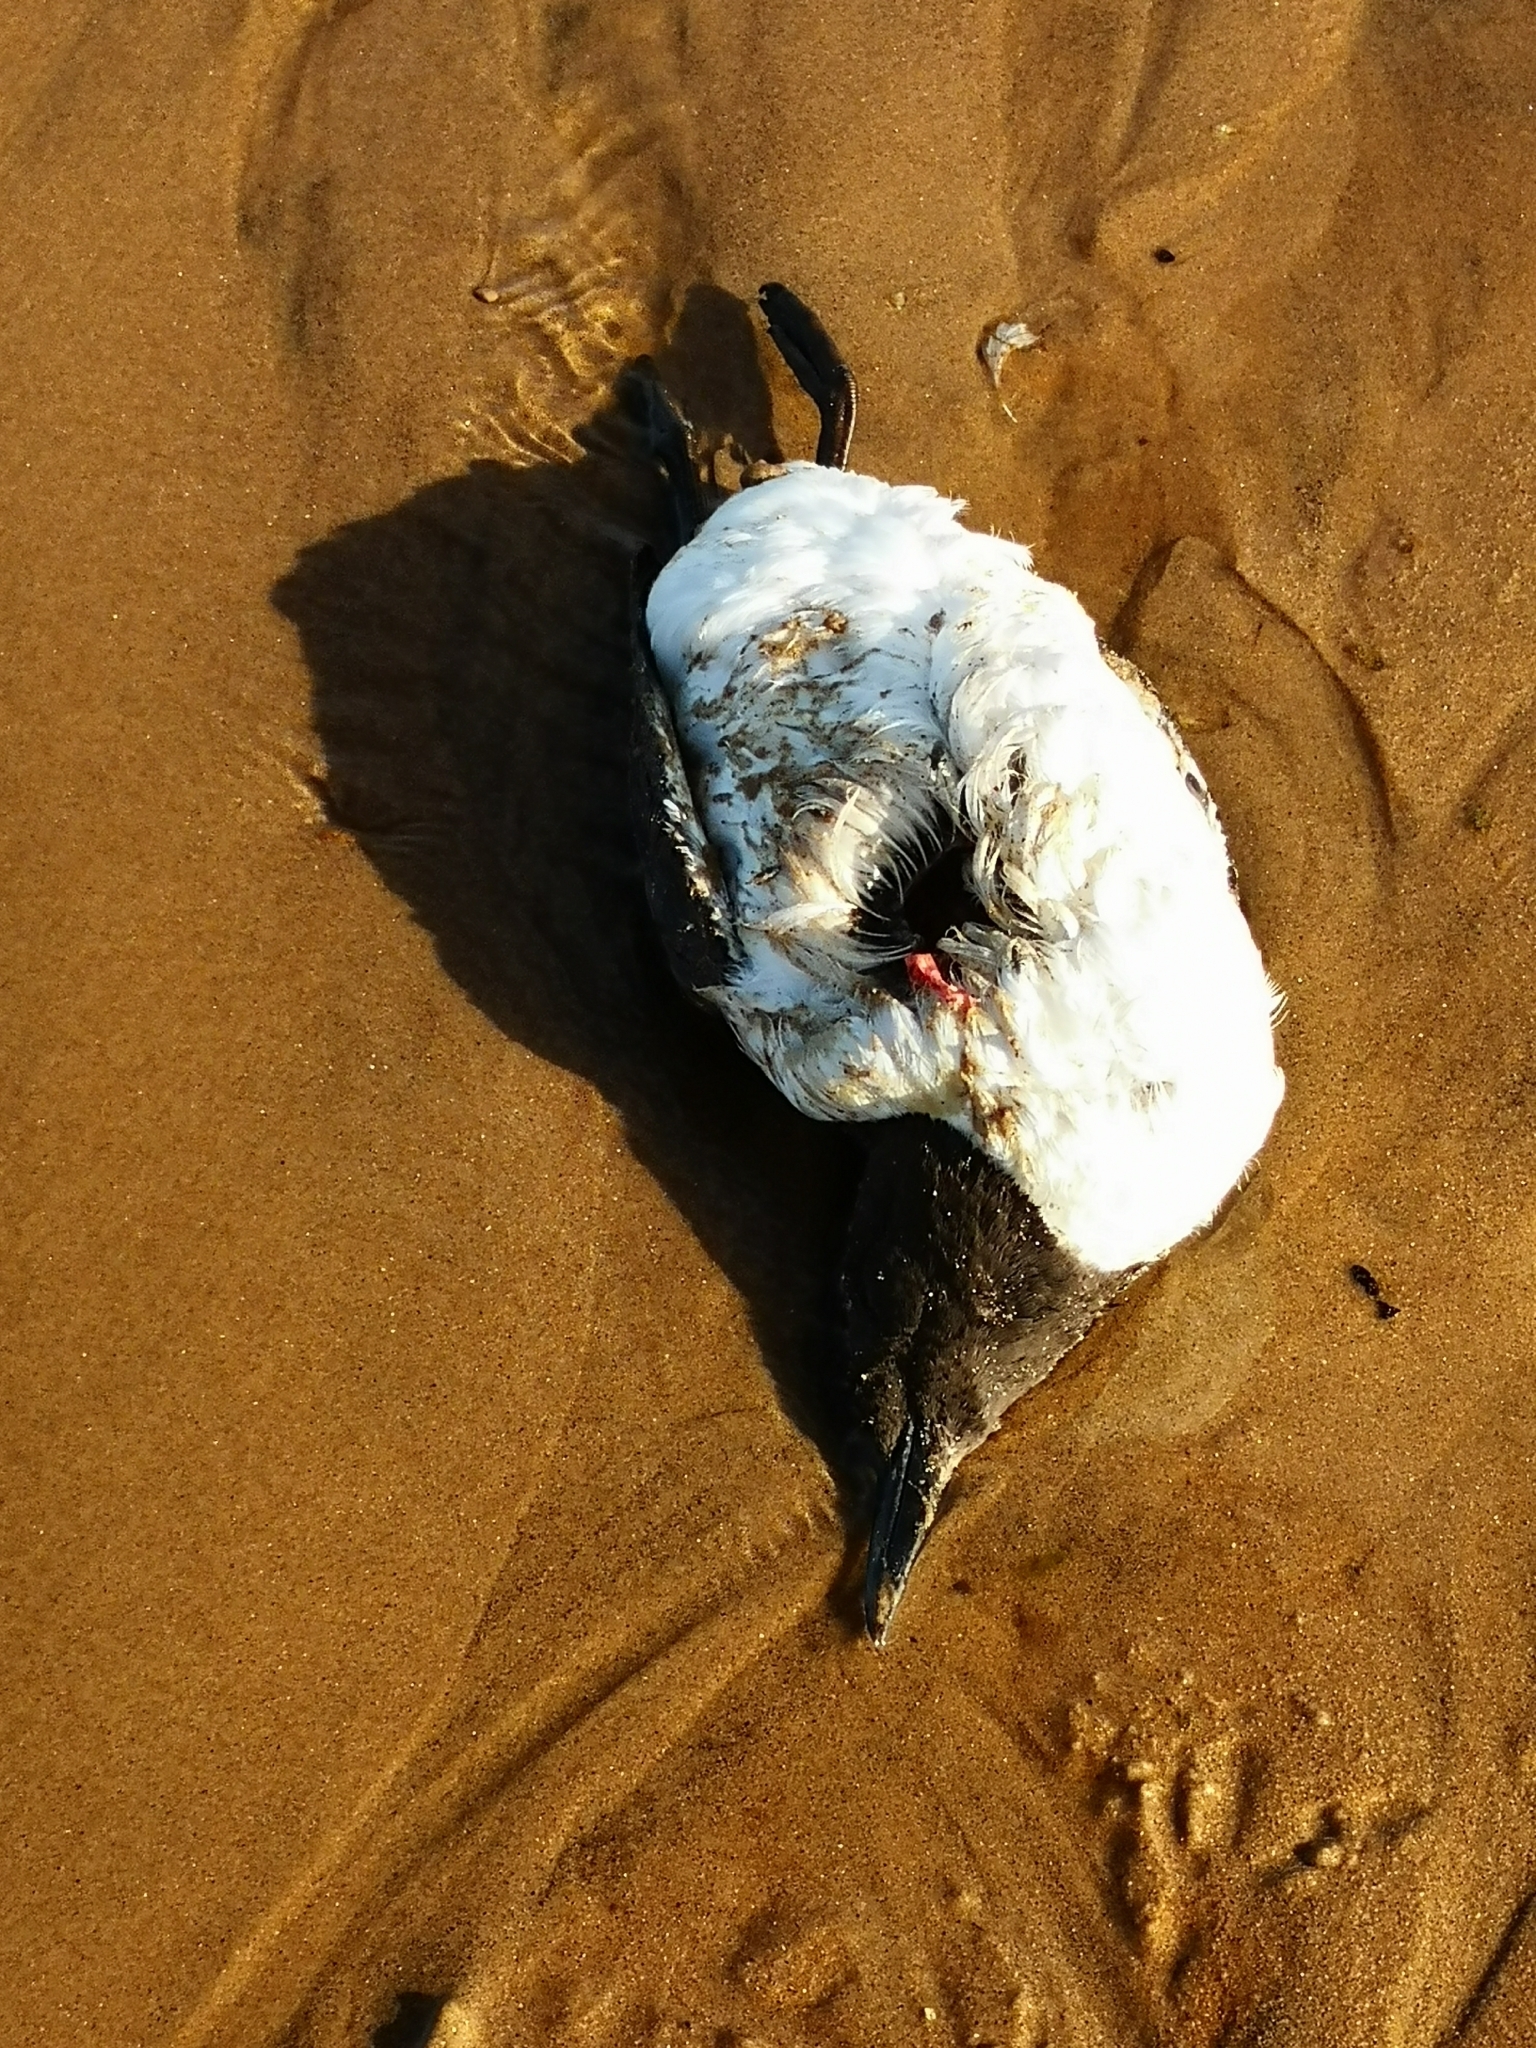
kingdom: Animalia
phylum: Chordata
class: Aves
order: Charadriiformes
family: Alcidae
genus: Uria
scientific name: Uria aalge
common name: Common murre
